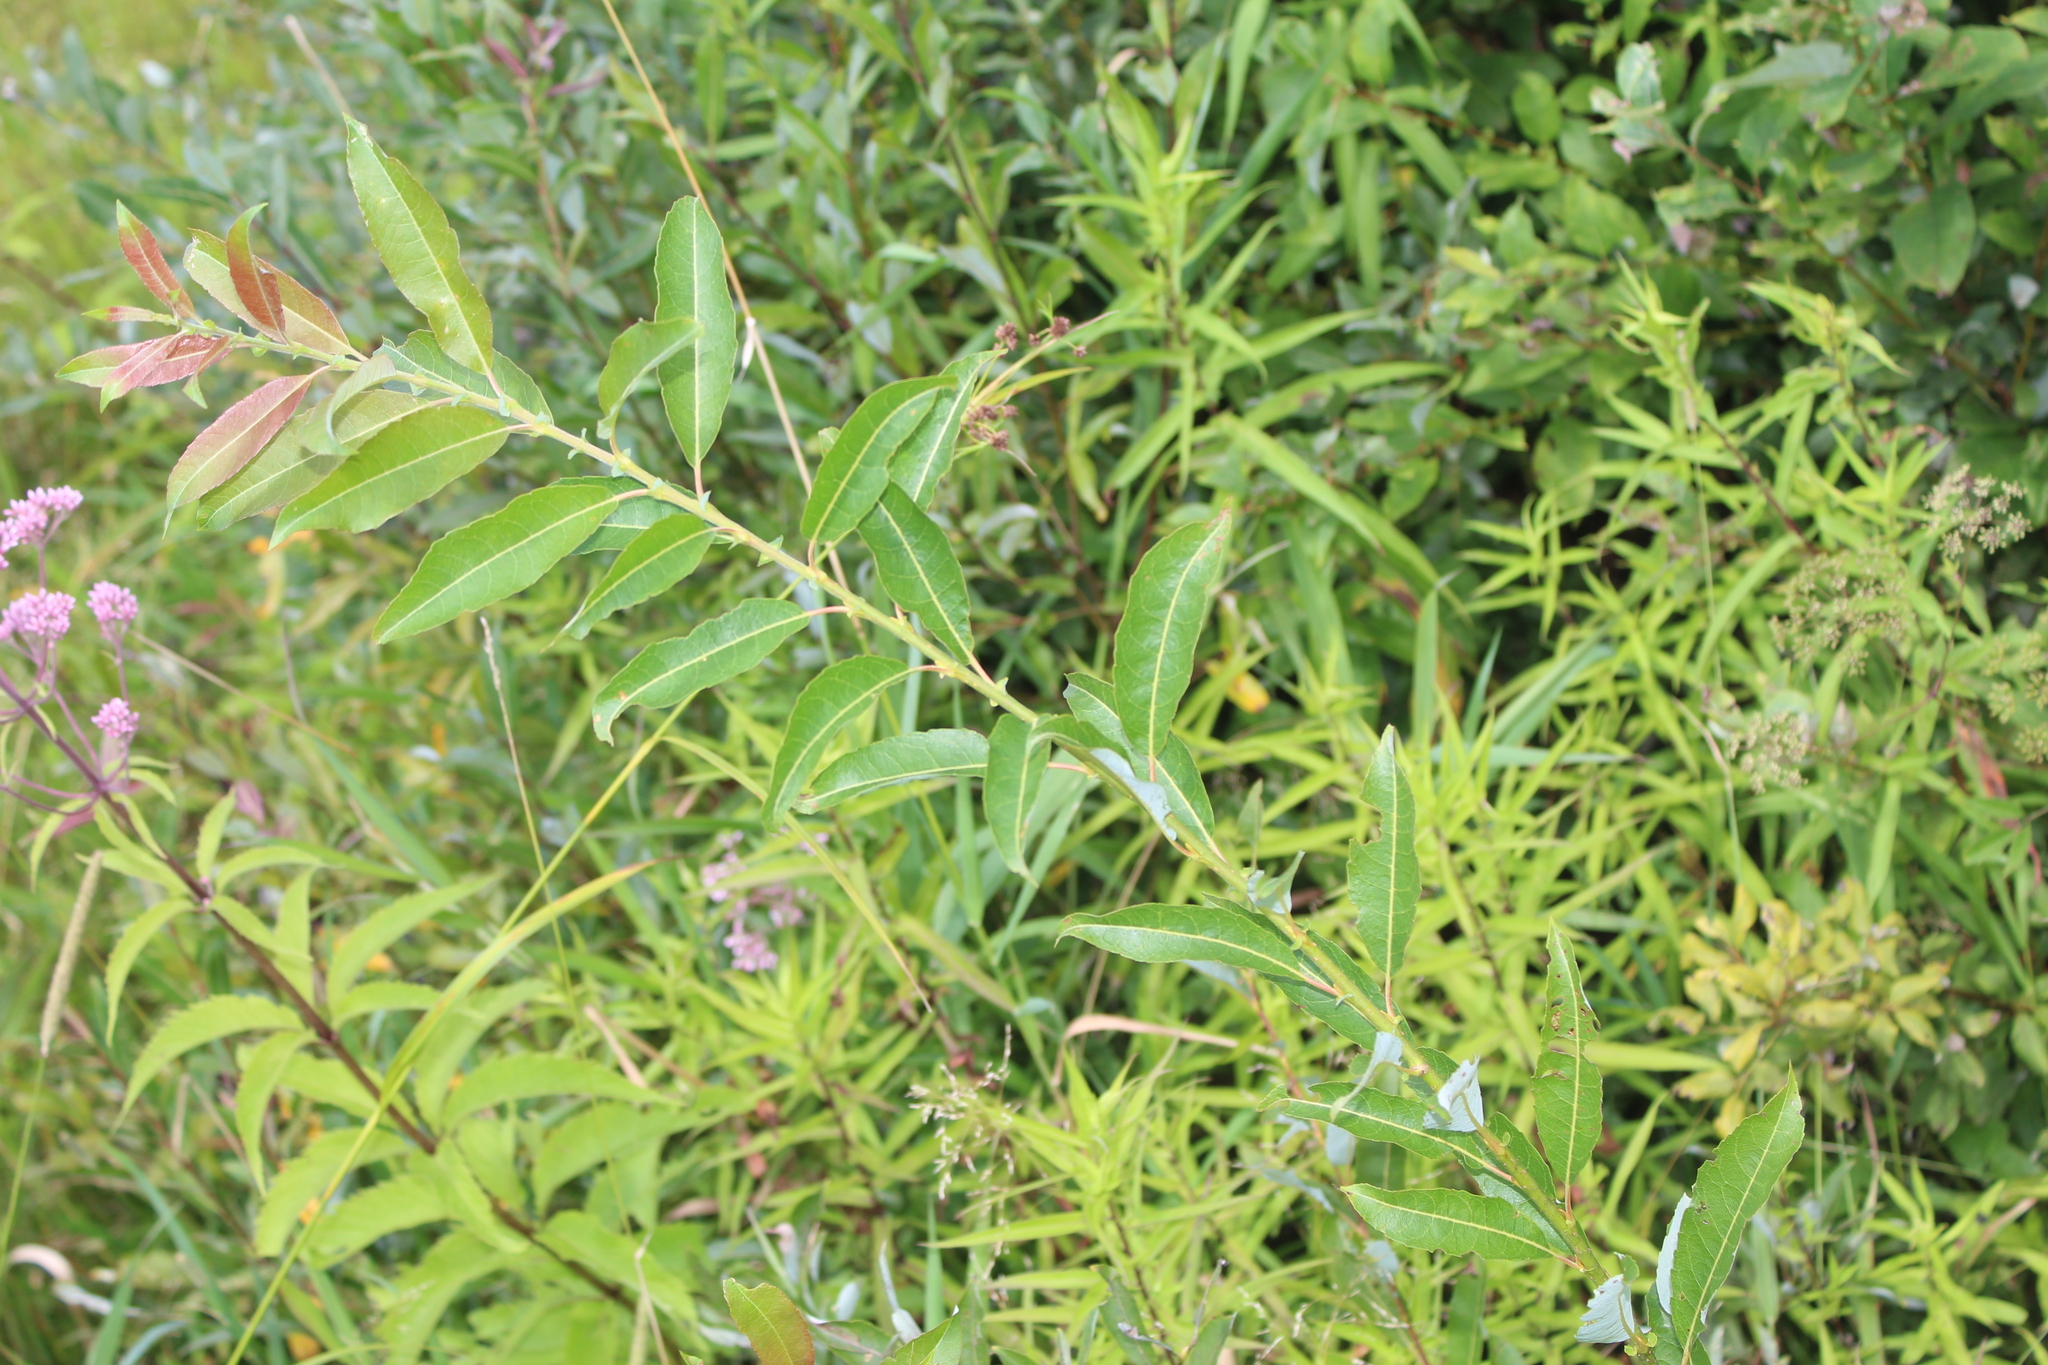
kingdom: Plantae
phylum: Tracheophyta
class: Magnoliopsida
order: Malpighiales
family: Salicaceae
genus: Salix
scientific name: Salix discolor
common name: Glaucous willow
